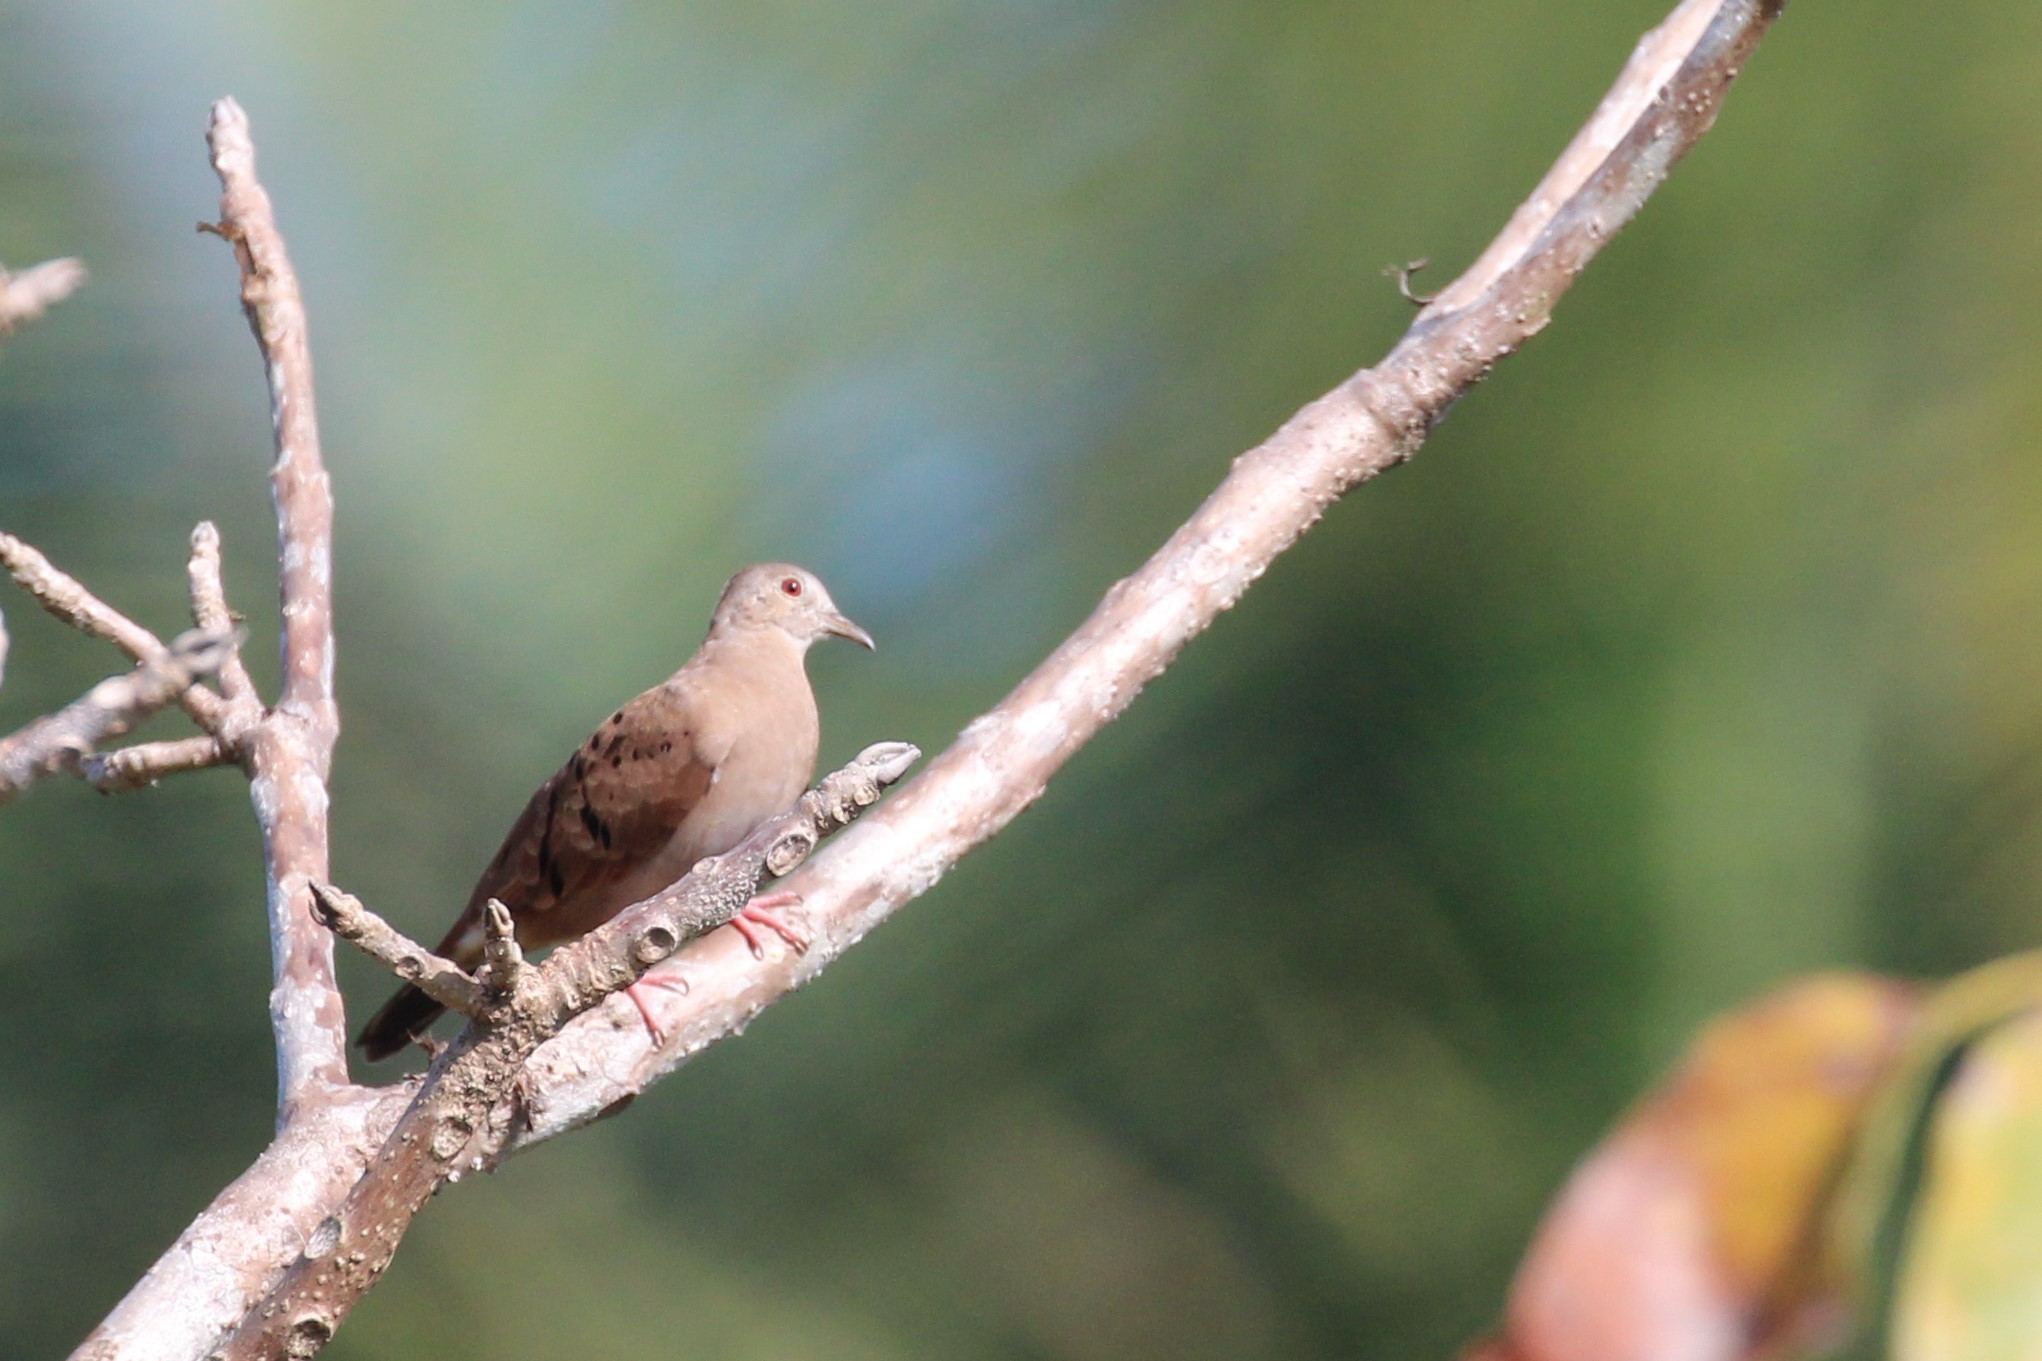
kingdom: Animalia
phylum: Chordata
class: Aves
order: Columbiformes
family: Columbidae
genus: Columbina
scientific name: Columbina talpacoti
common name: Ruddy ground dove
